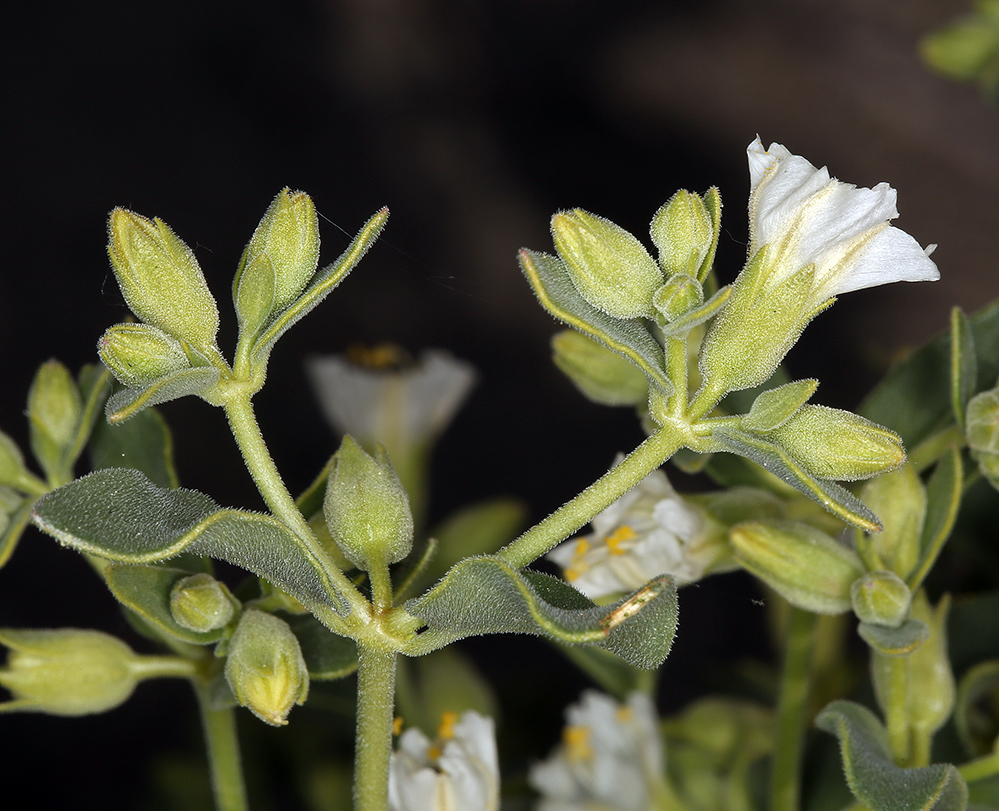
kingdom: Plantae
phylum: Tracheophyta
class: Magnoliopsida
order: Caryophyllales
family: Nyctaginaceae
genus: Mirabilis
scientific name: Mirabilis laevis
